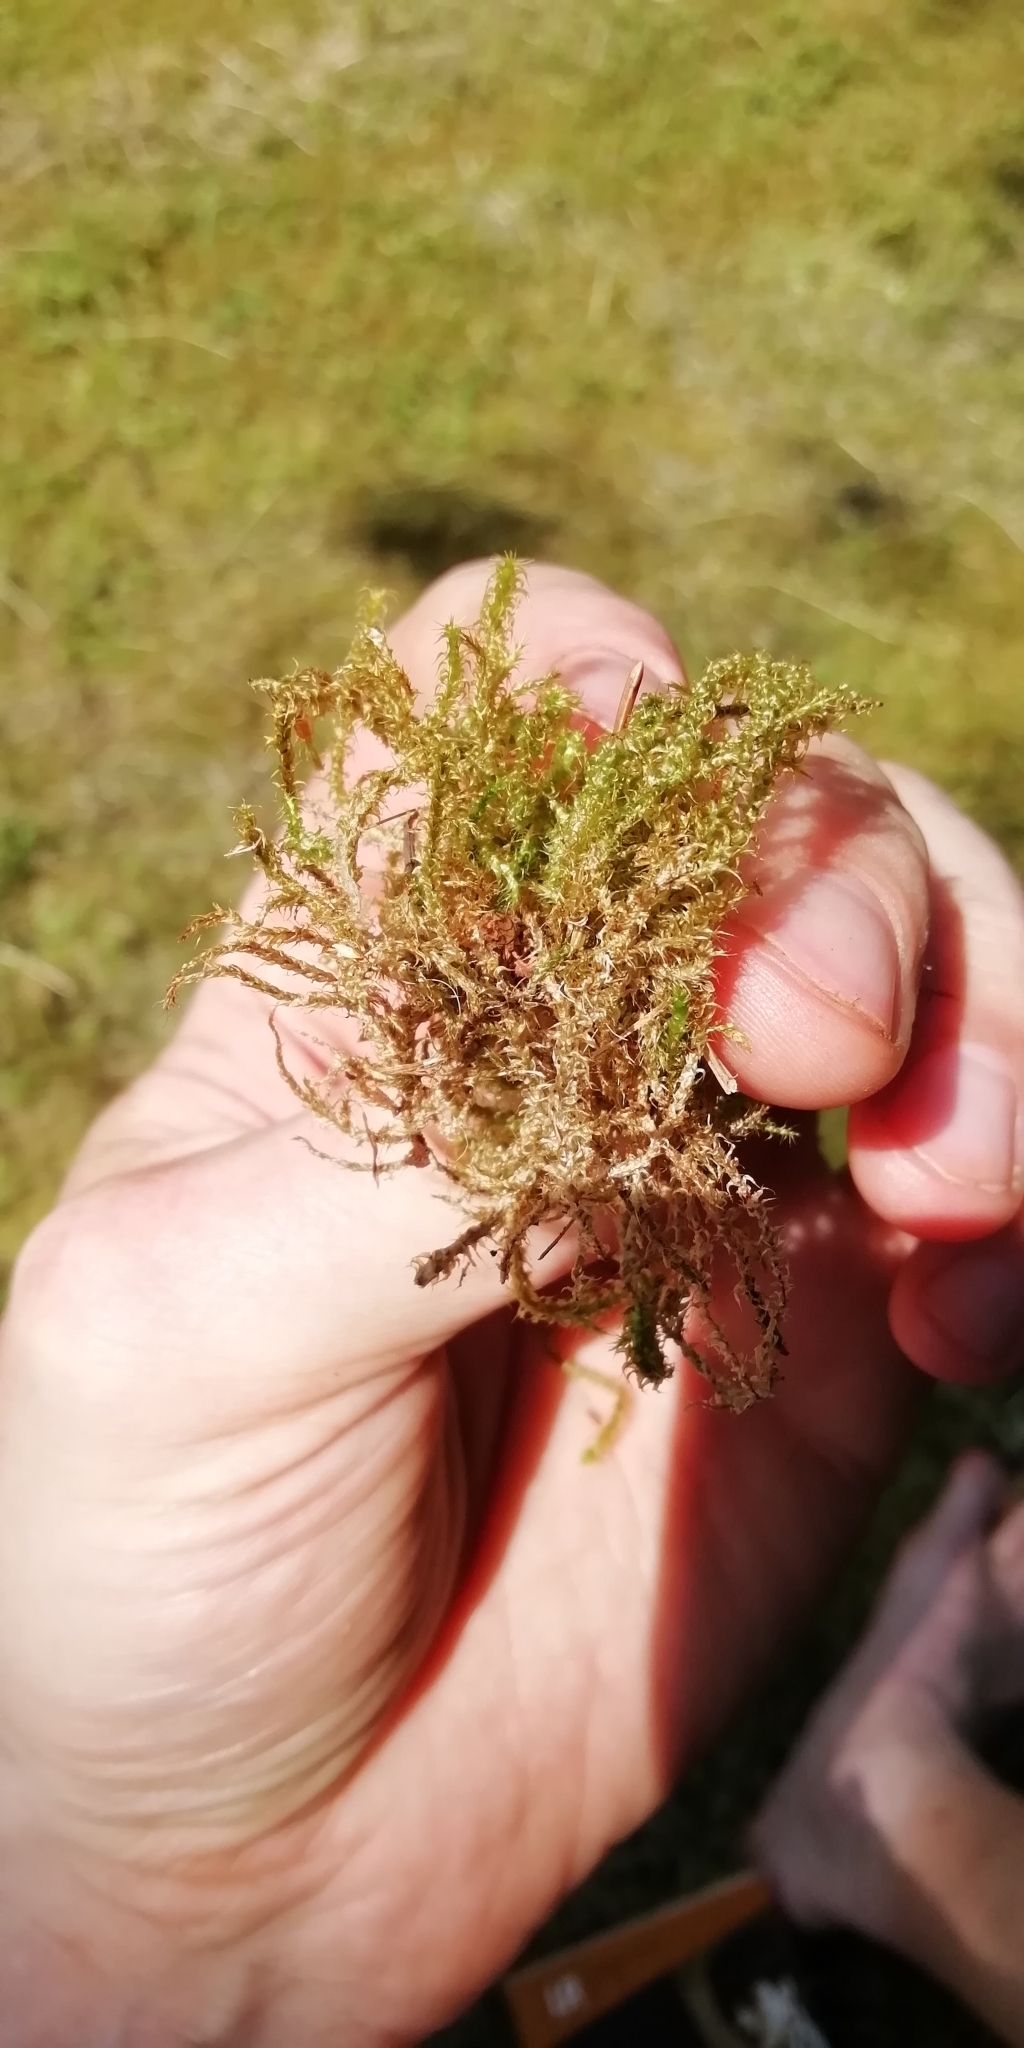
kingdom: Plantae
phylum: Bryophyta
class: Bryopsida
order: Hypnales
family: Hylocomiaceae
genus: Rhytidiadelphus
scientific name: Rhytidiadelphus squarrosus
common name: Springy turf-moss
